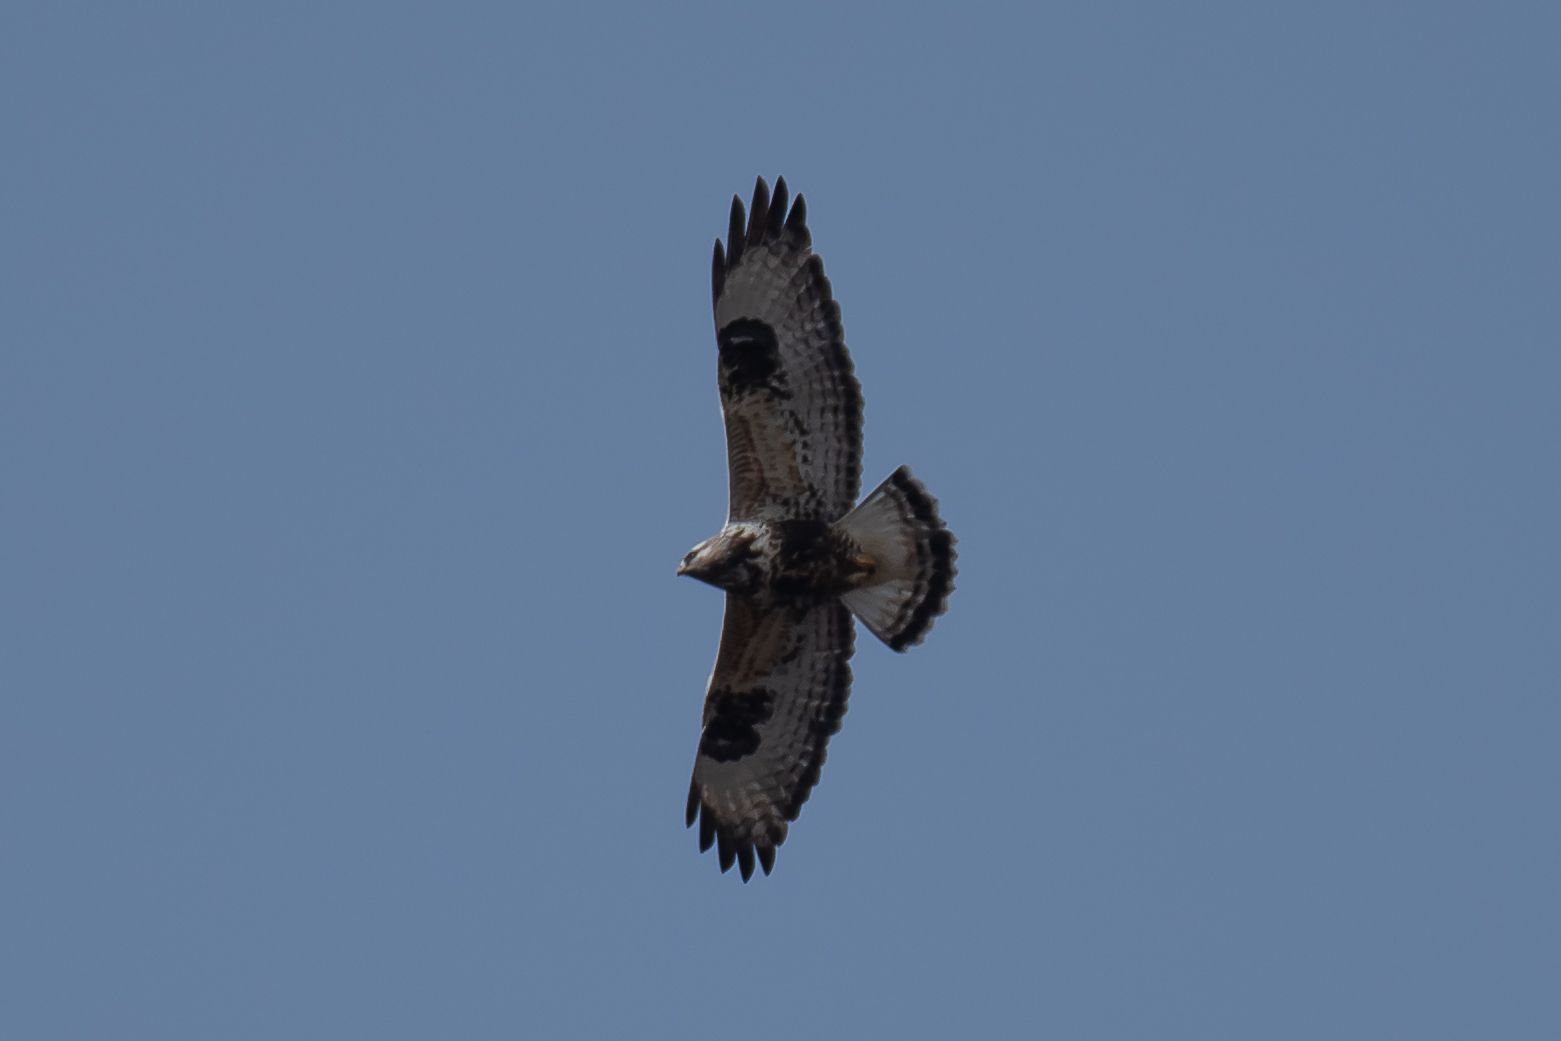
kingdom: Animalia
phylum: Chordata
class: Aves
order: Accipitriformes
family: Accipitridae
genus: Buteo
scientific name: Buteo lagopus
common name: Rough-legged buzzard
